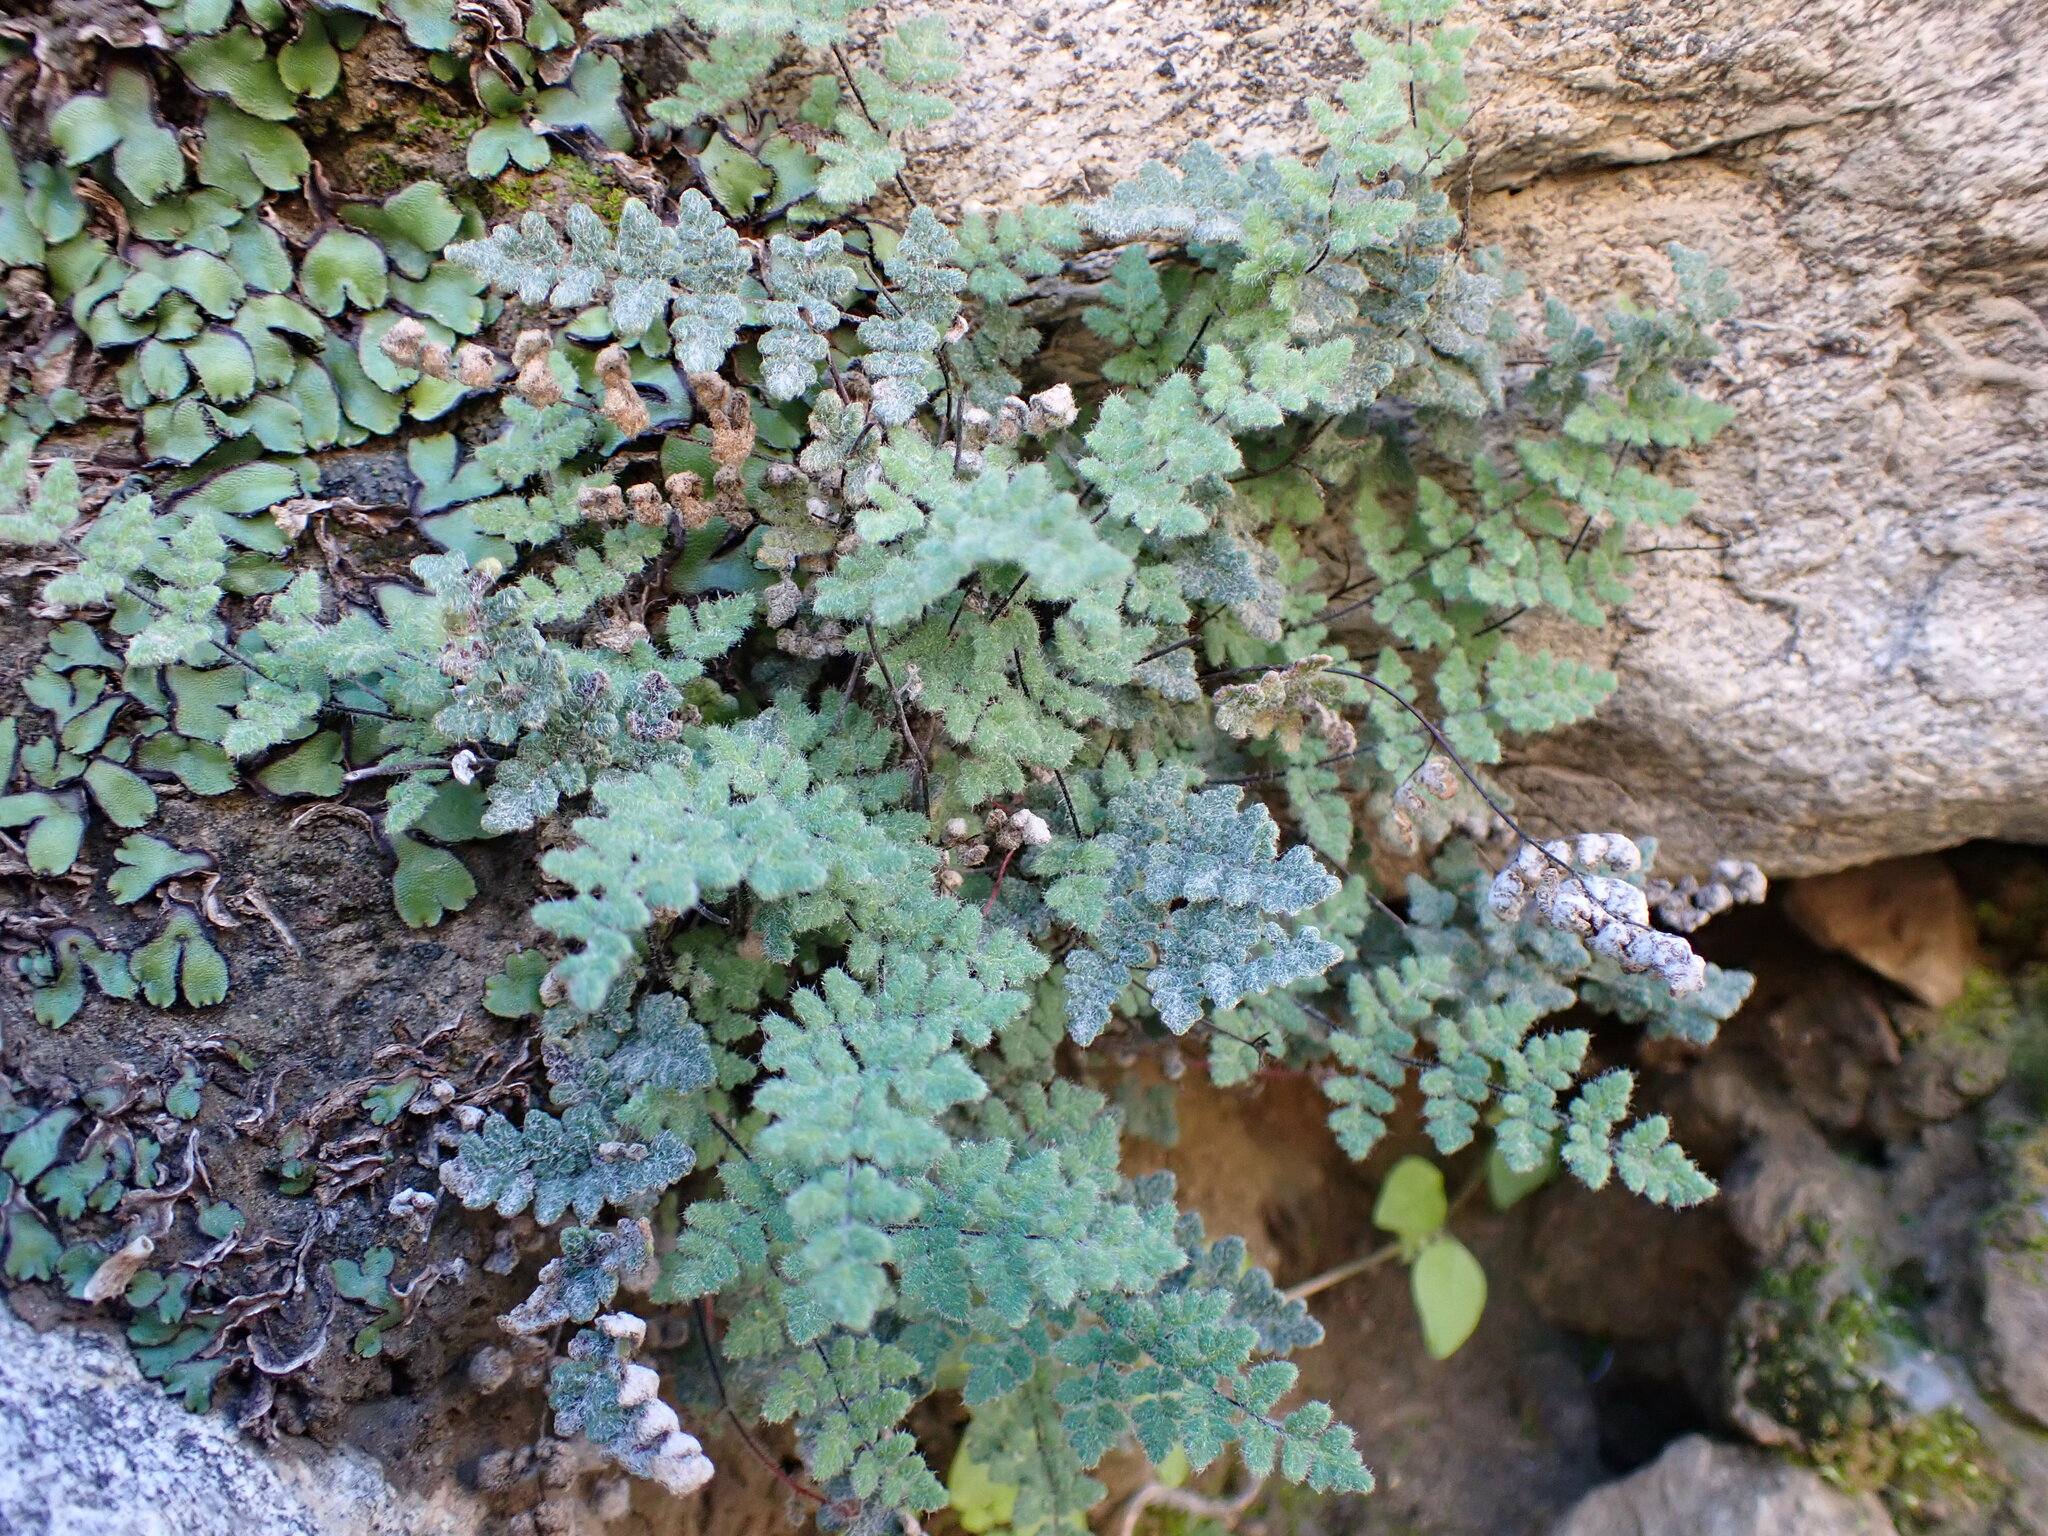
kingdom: Plantae
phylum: Tracheophyta
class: Polypodiopsida
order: Polypodiales
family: Pteridaceae
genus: Myriopteris
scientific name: Myriopteris parryi
